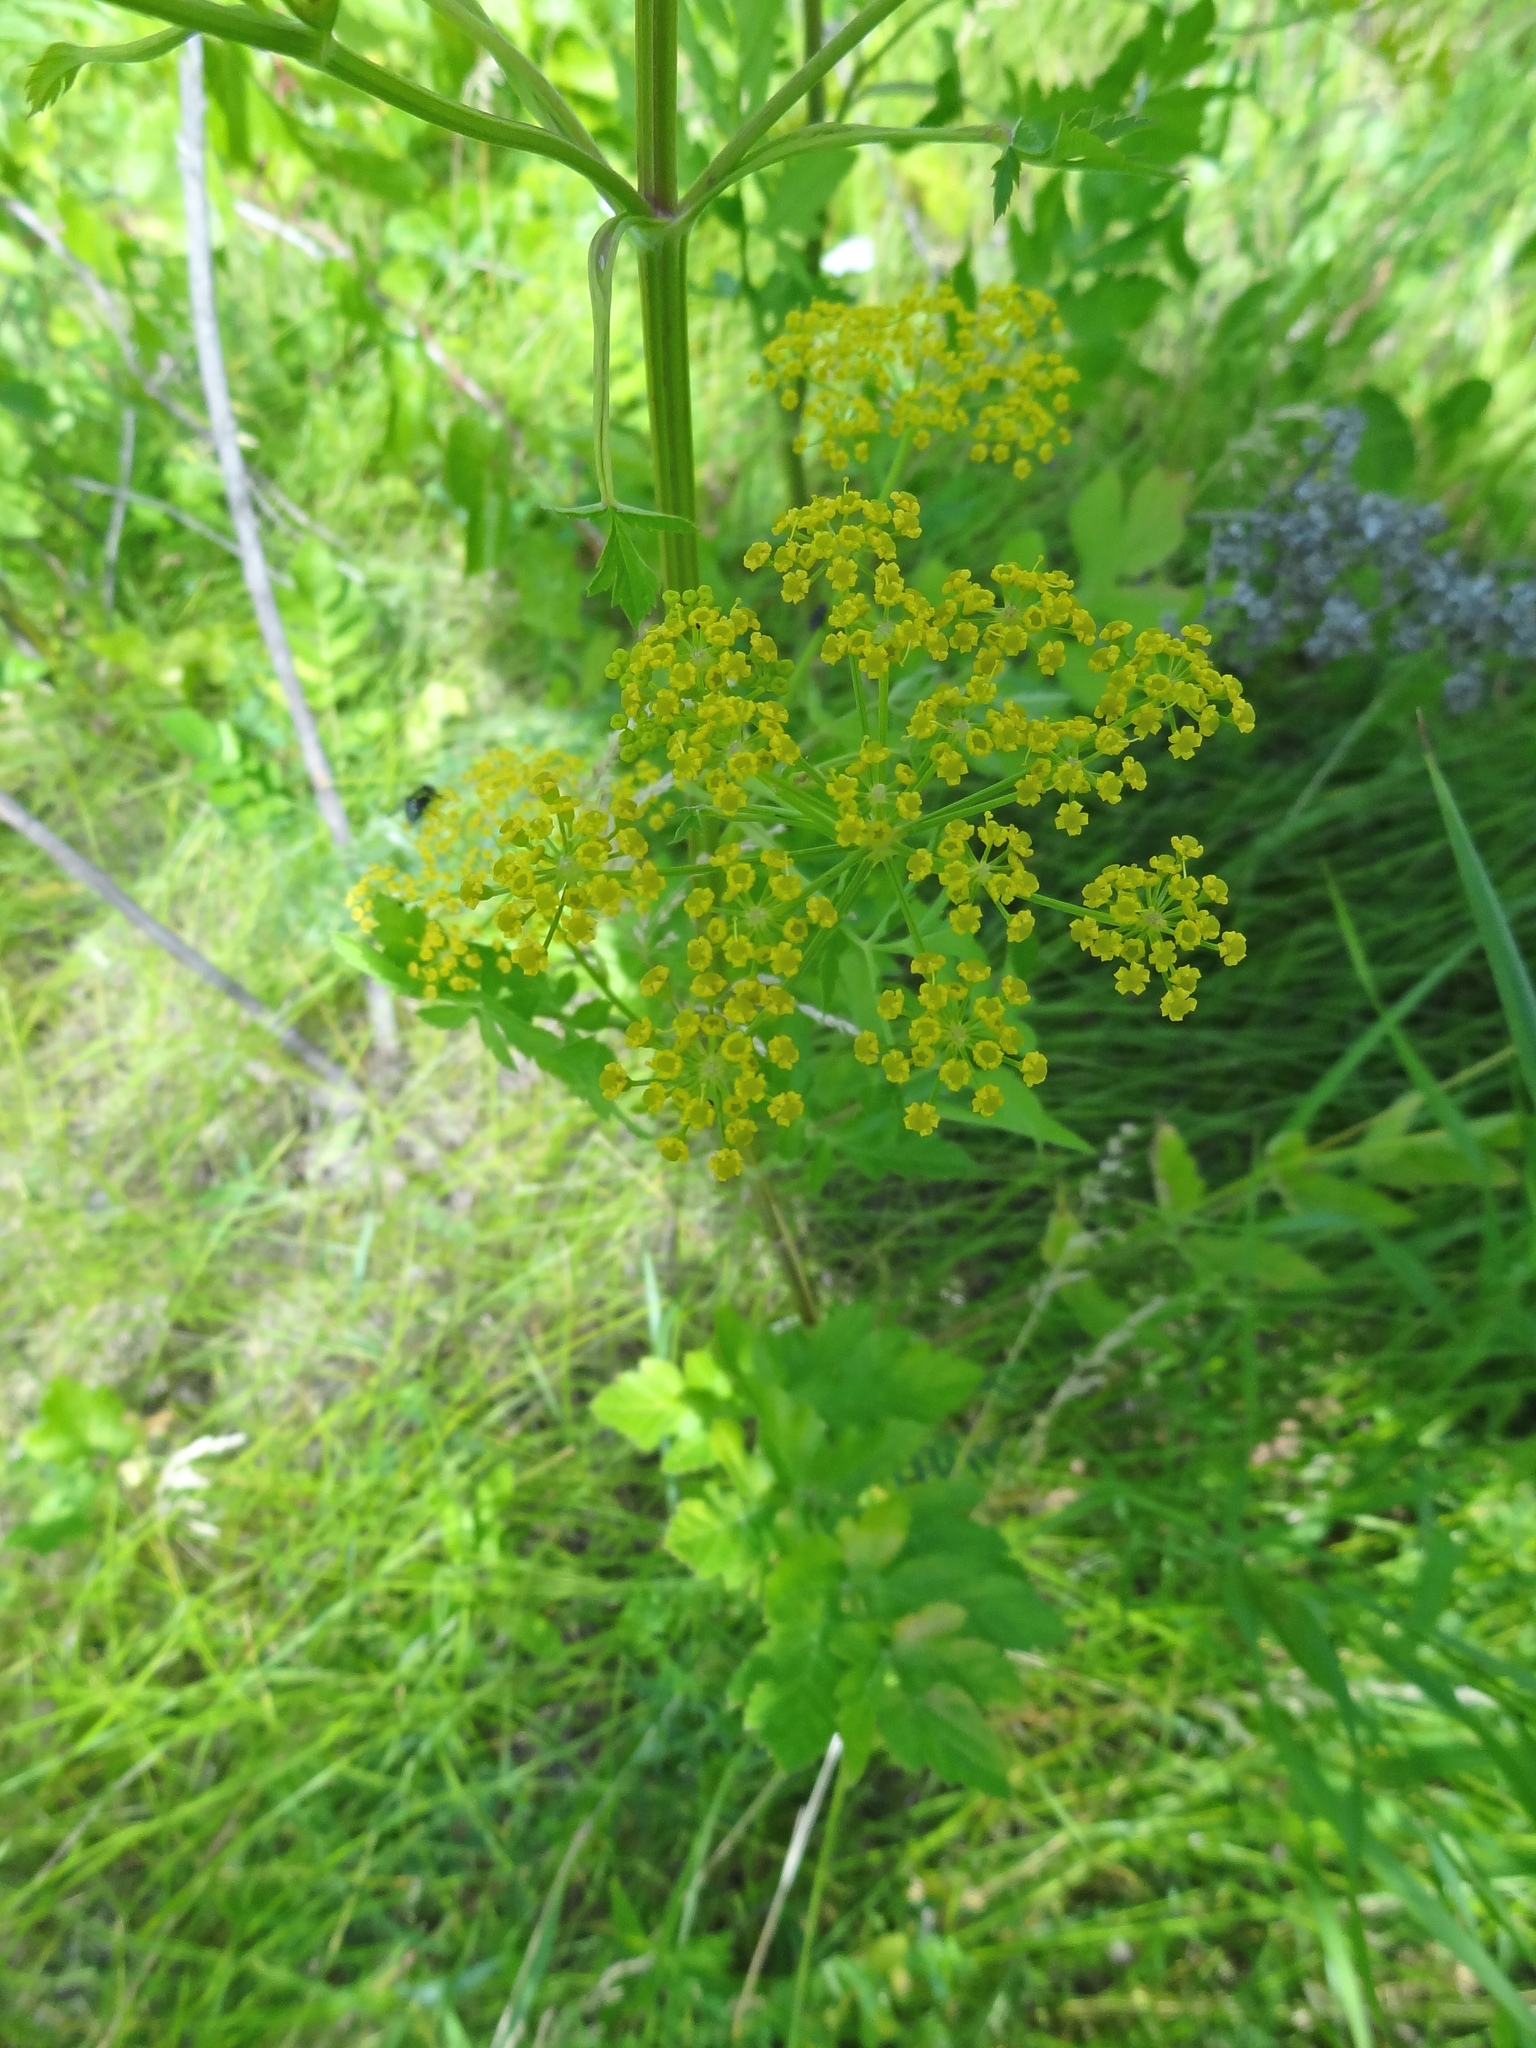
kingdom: Plantae
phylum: Tracheophyta
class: Magnoliopsida
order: Apiales
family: Apiaceae
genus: Pastinaca
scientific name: Pastinaca sativa
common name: Wild parsnip
